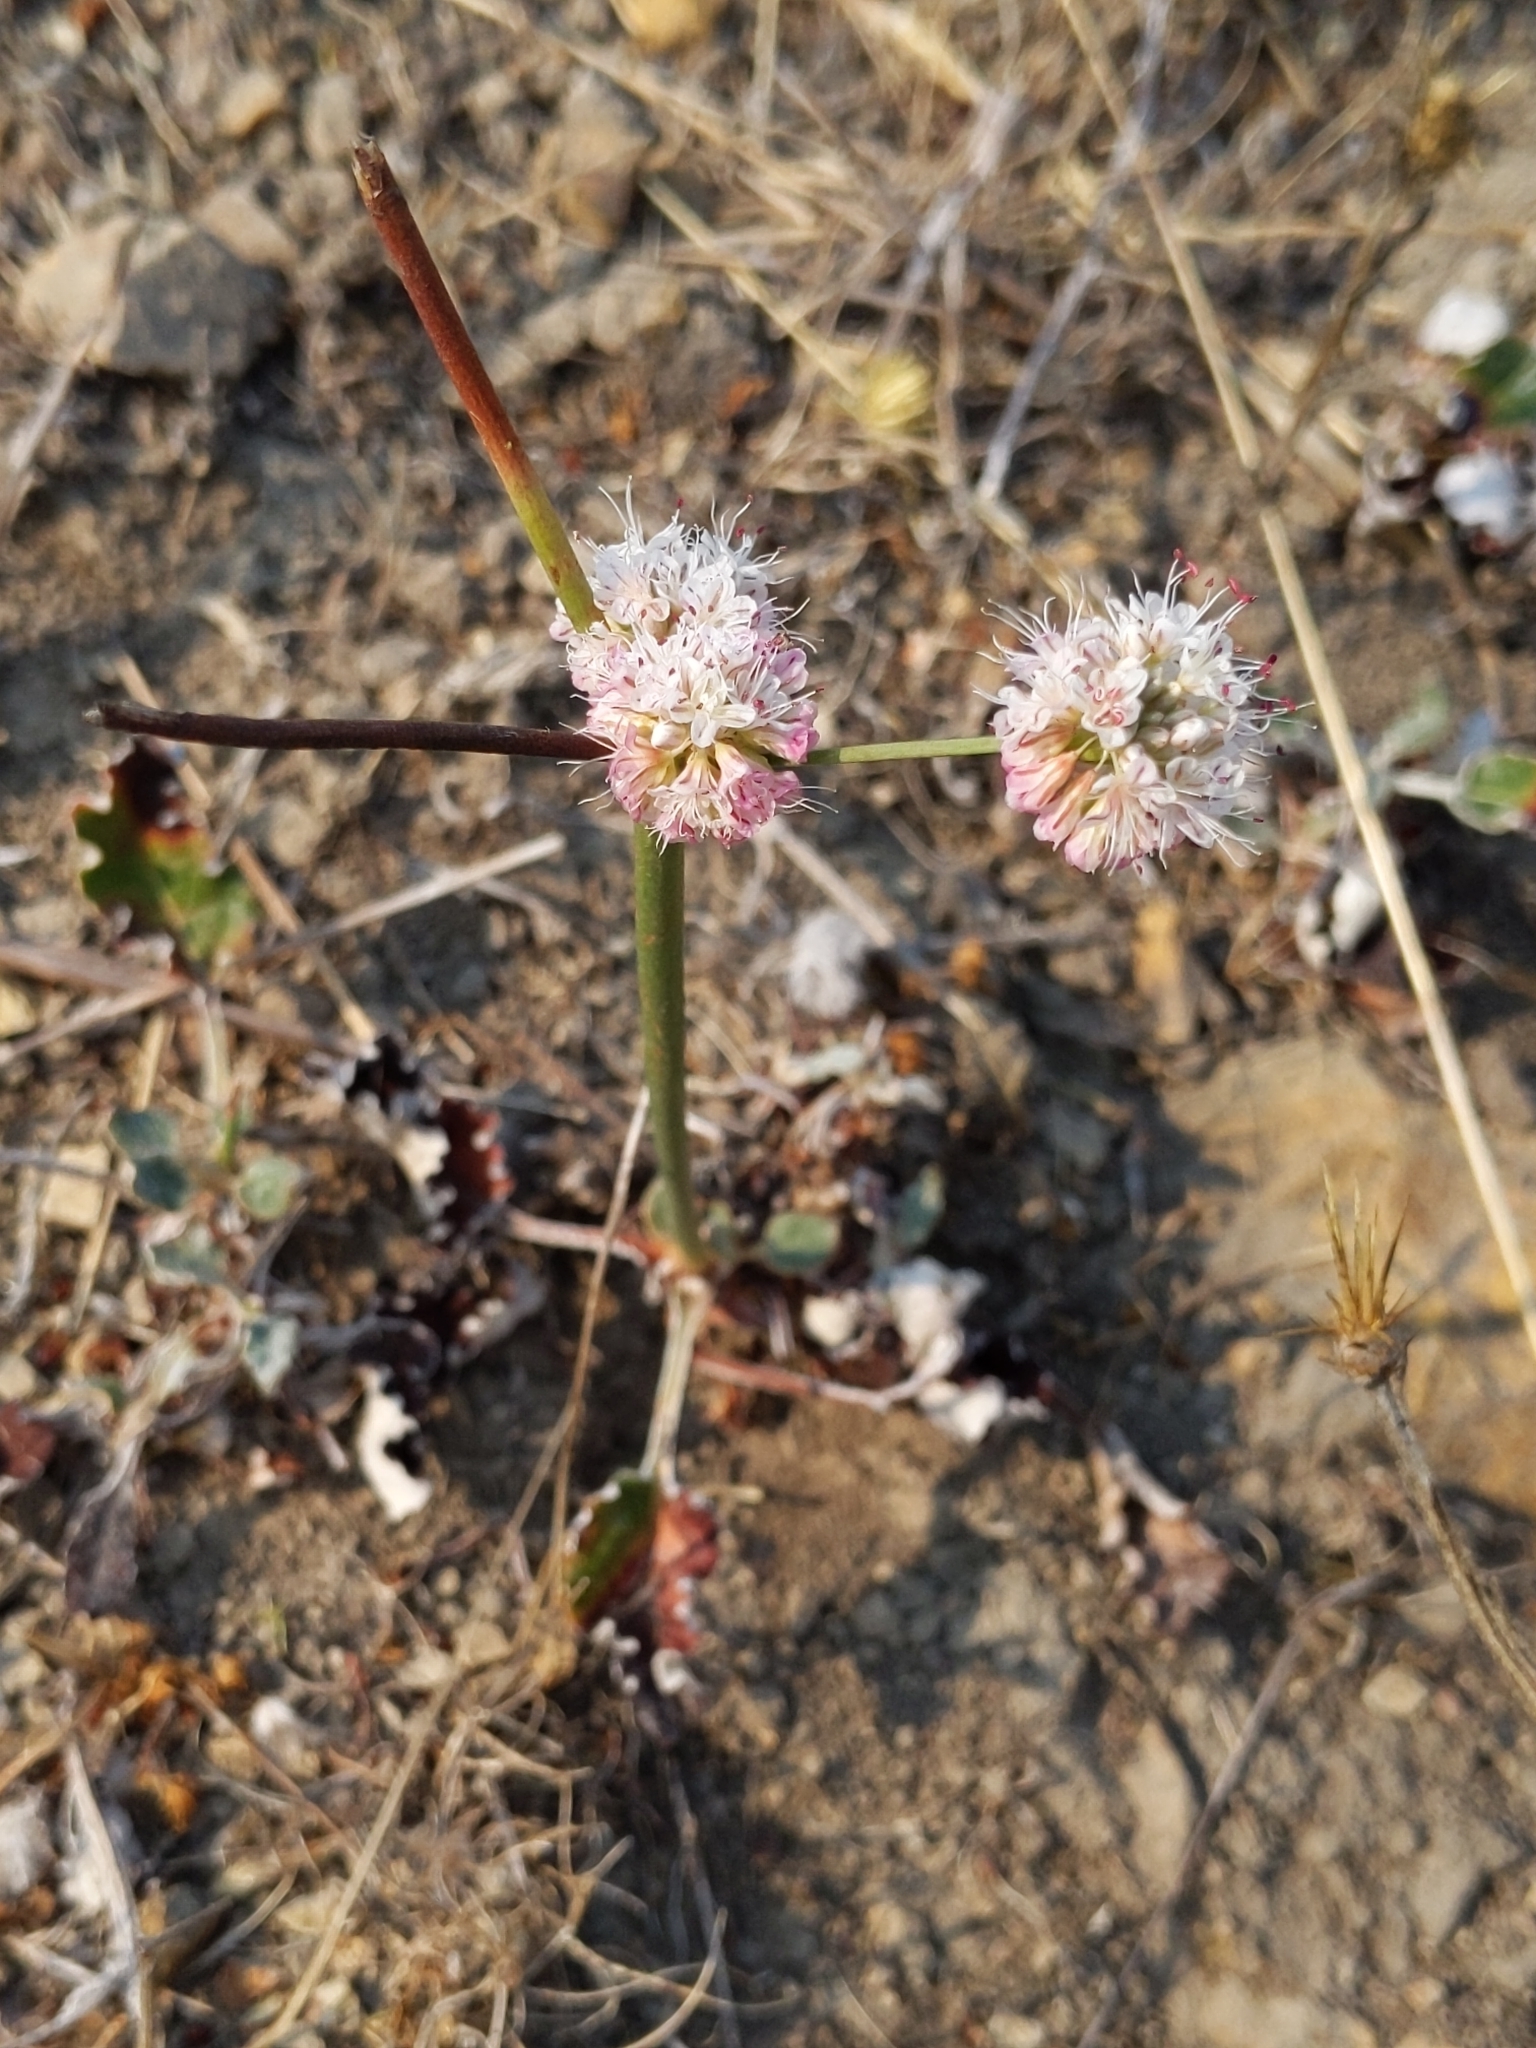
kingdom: Plantae
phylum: Tracheophyta
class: Magnoliopsida
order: Caryophyllales
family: Polygonaceae
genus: Eriogonum
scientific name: Eriogonum nudum
